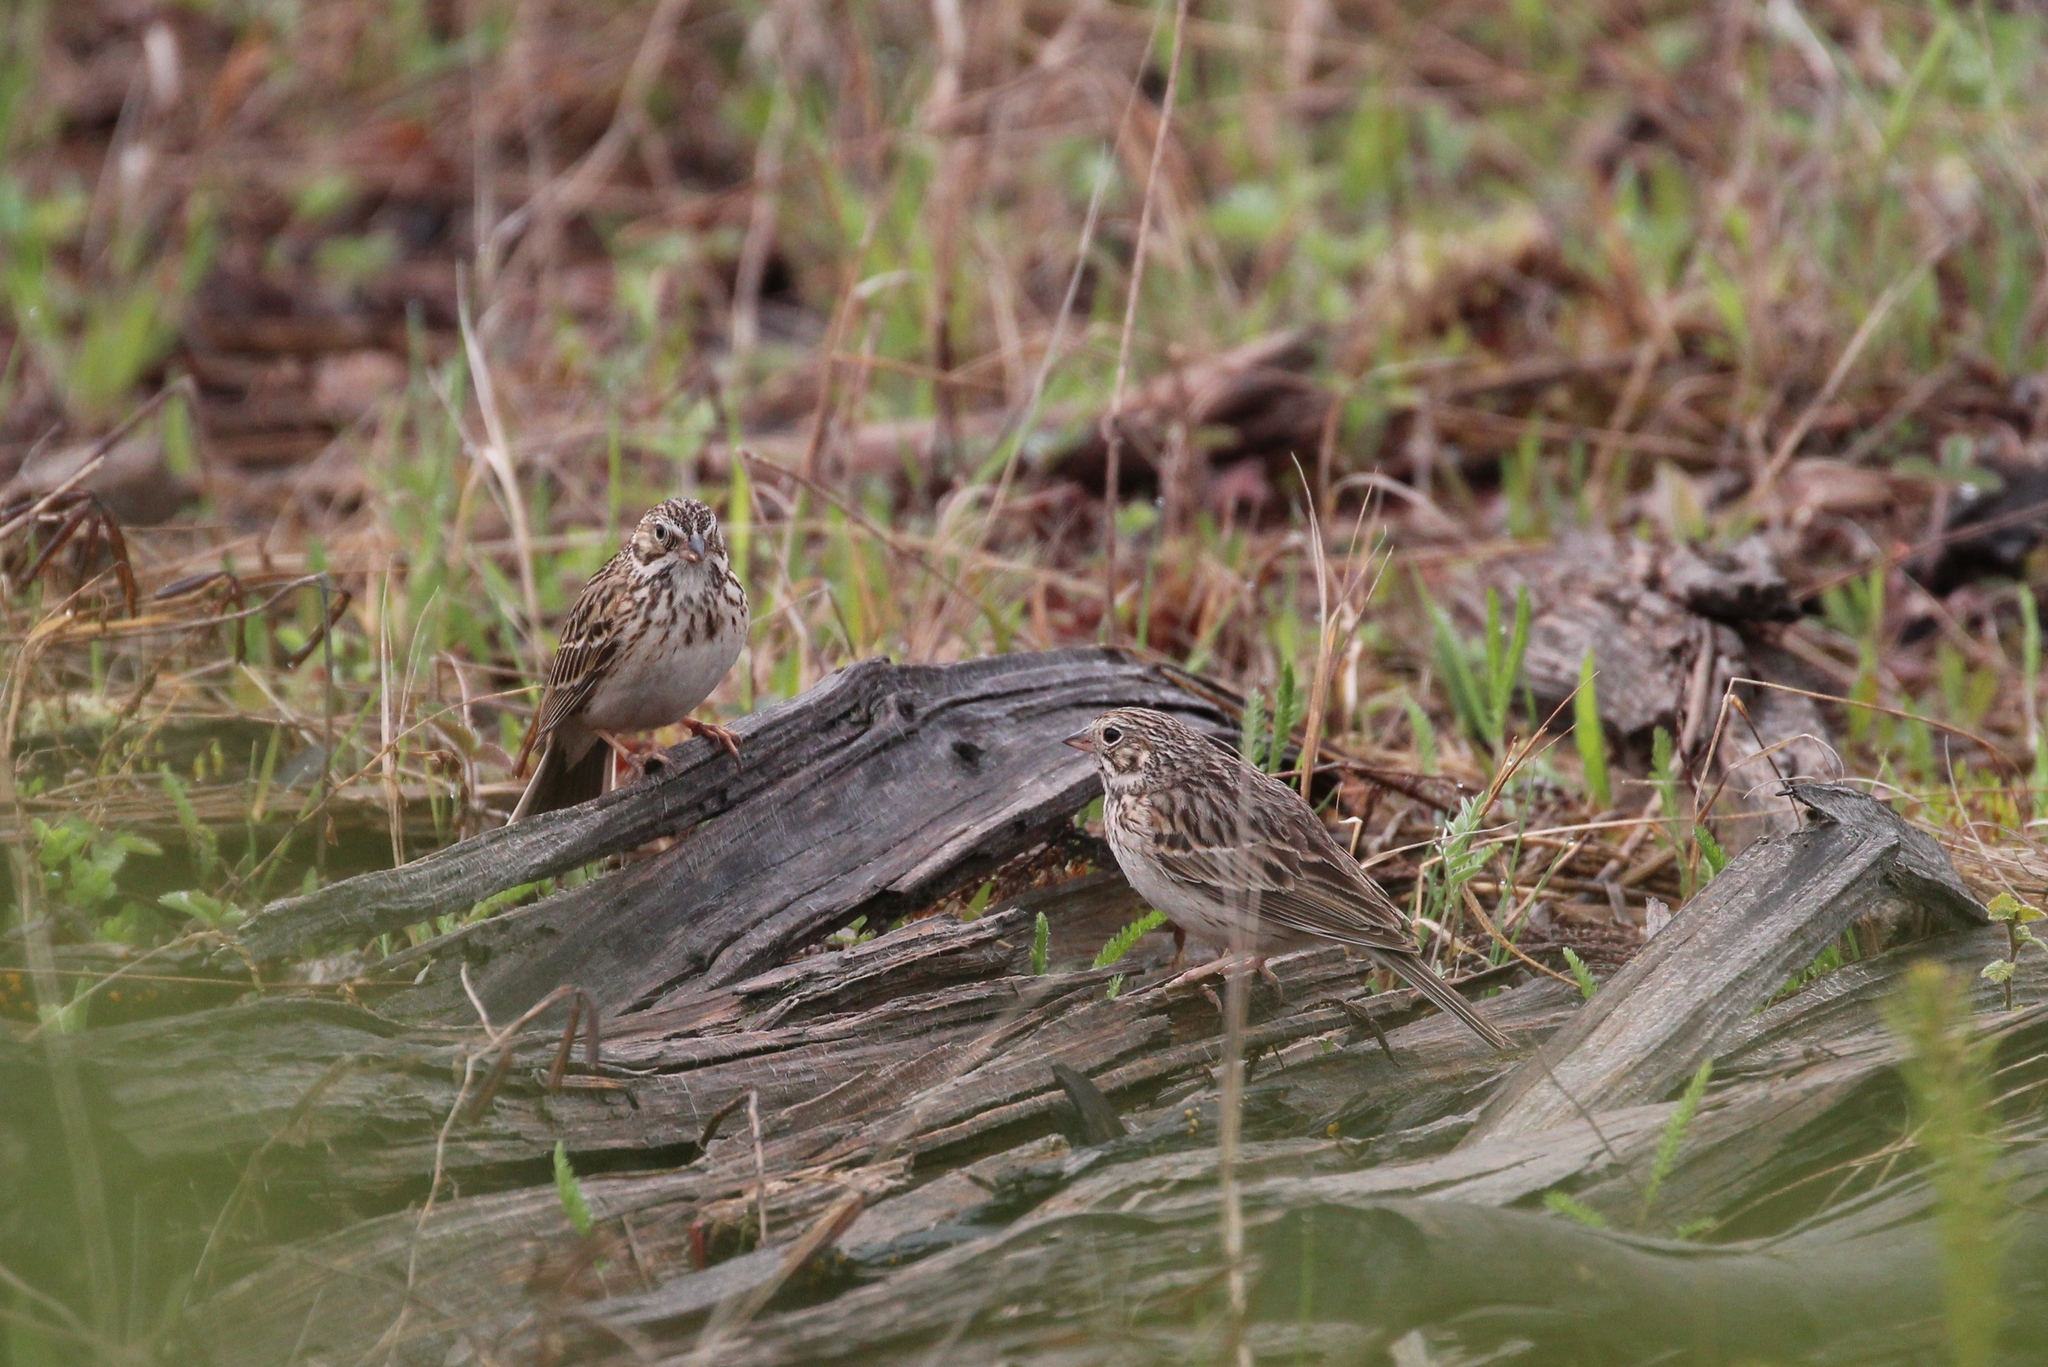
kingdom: Animalia
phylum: Chordata
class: Aves
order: Passeriformes
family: Passerellidae
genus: Pooecetes
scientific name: Pooecetes gramineus
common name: Vesper sparrow
